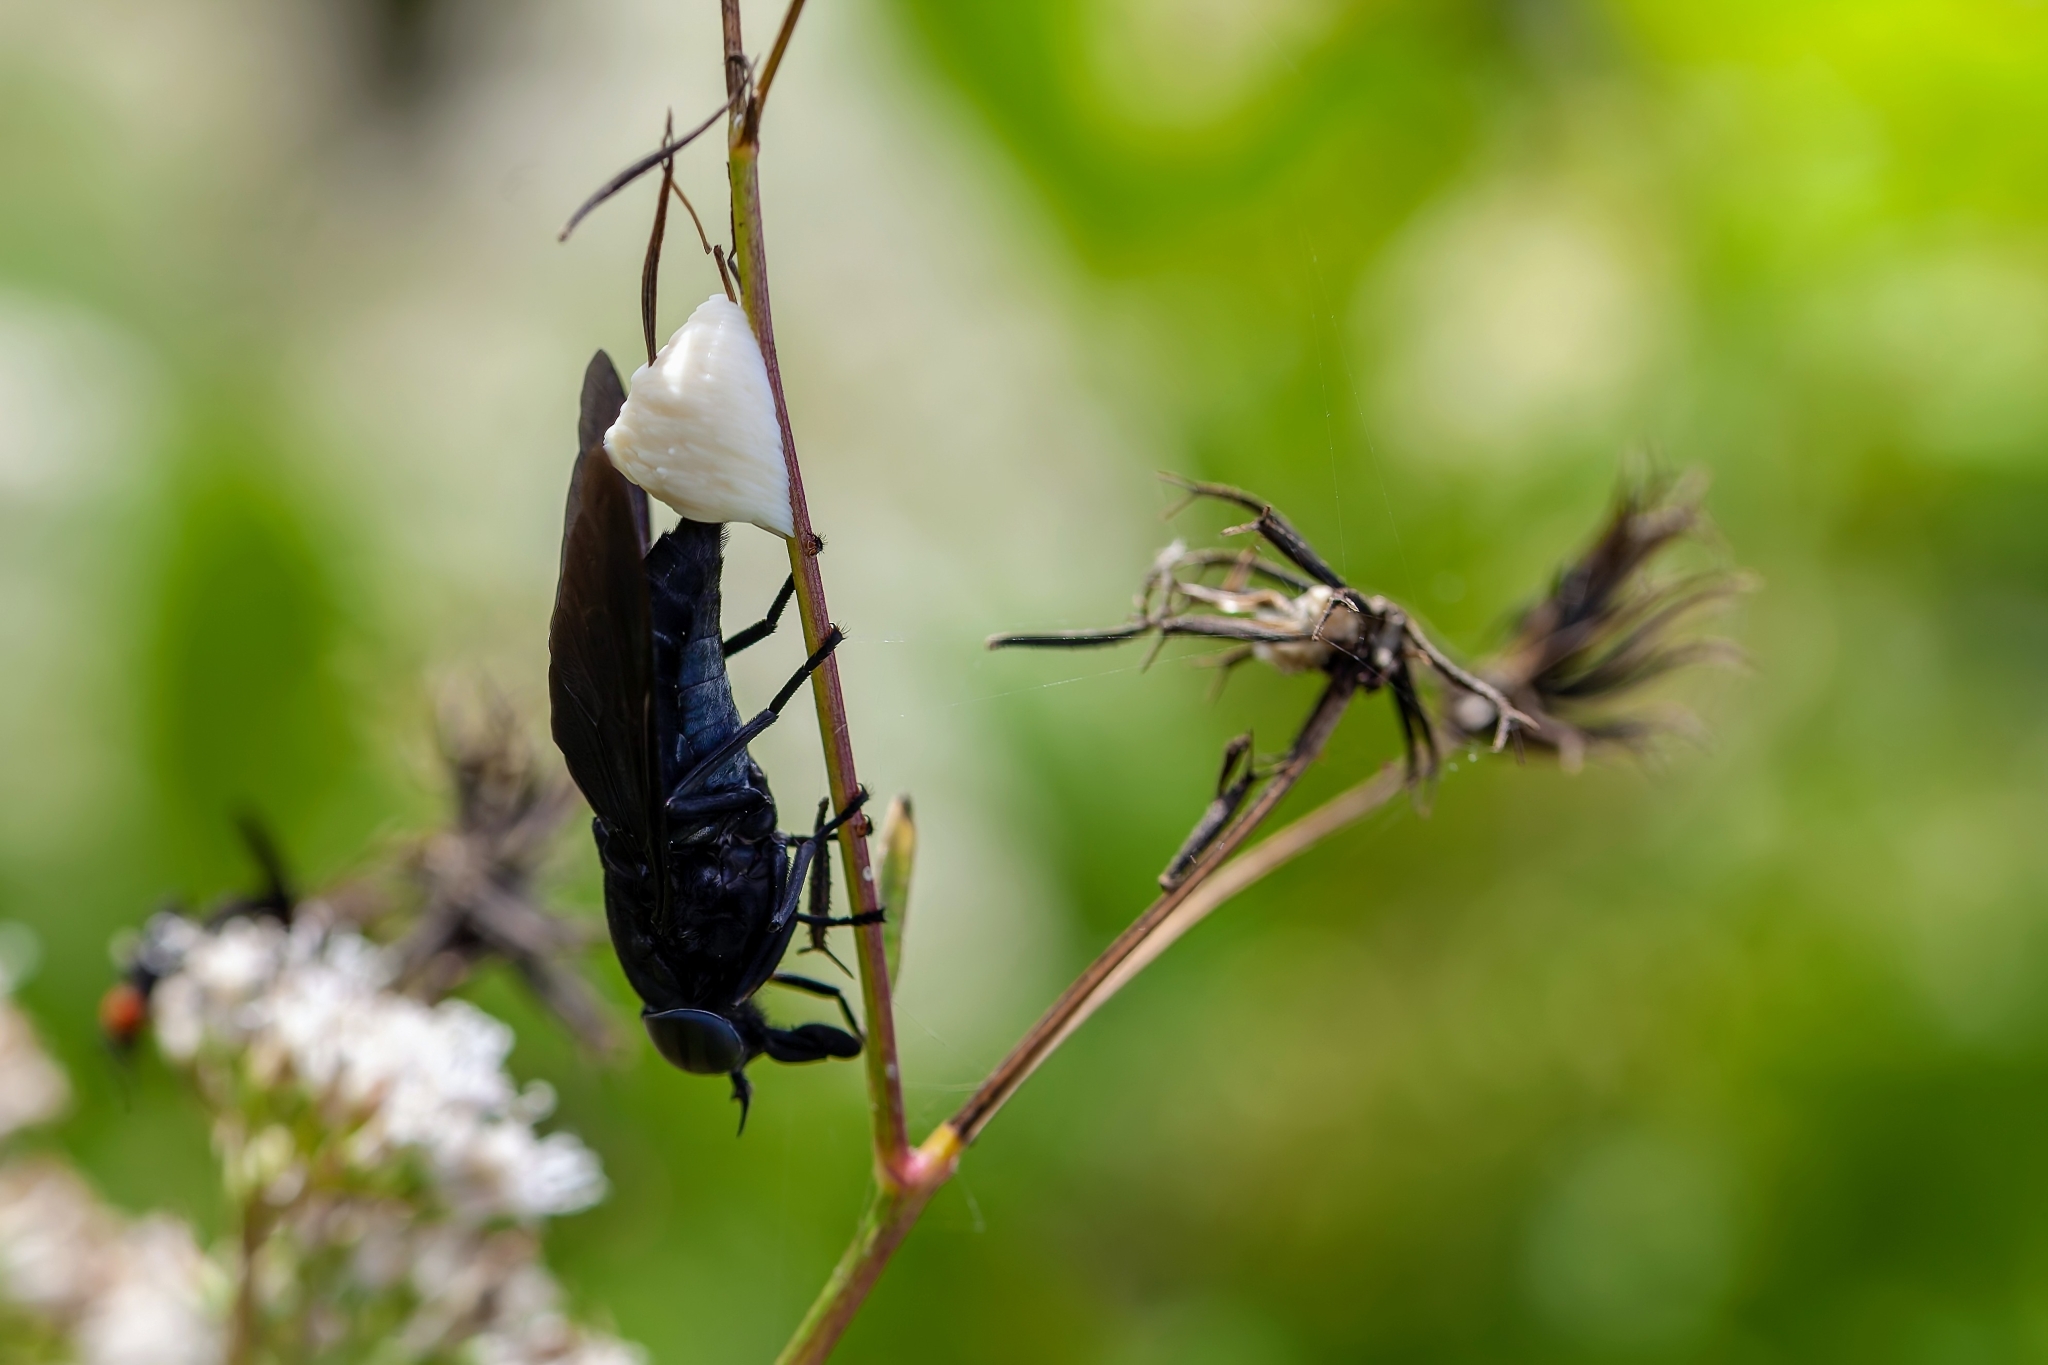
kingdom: Animalia
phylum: Arthropoda
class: Insecta
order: Diptera
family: Tabanidae
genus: Tabanus
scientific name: Tabanus atratus
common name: Black horse fly
